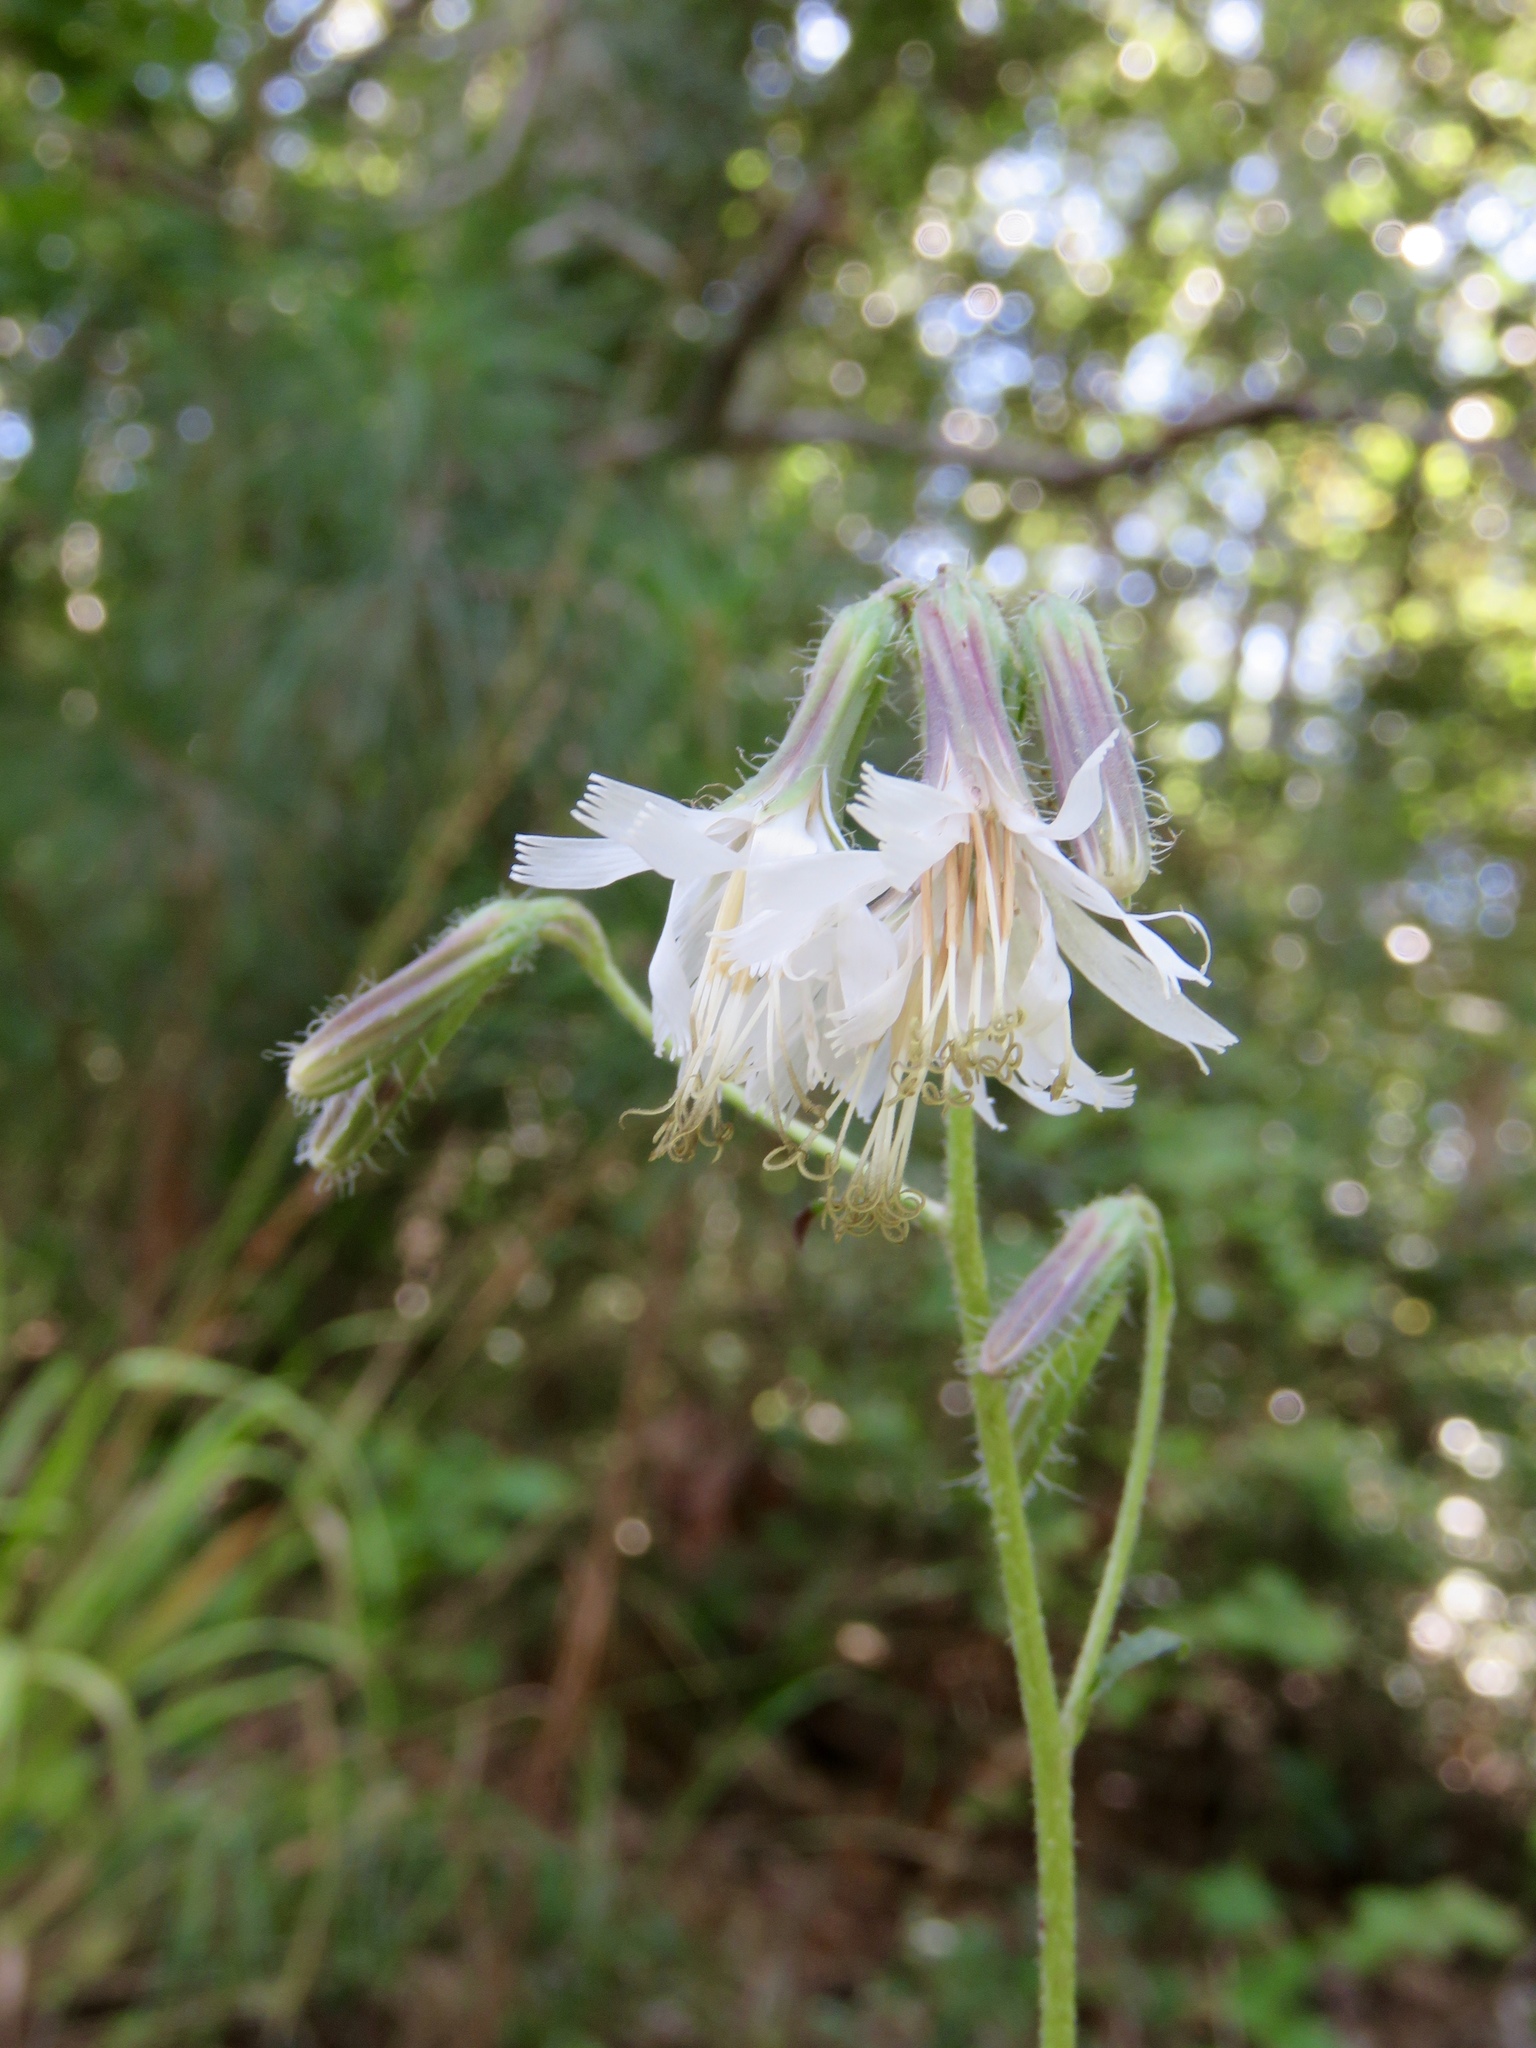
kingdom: Plantae
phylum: Tracheophyta
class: Magnoliopsida
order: Asterales
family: Asteraceae
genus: Nabalus
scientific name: Nabalus barbata
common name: Barbed rattlesnakeroot
